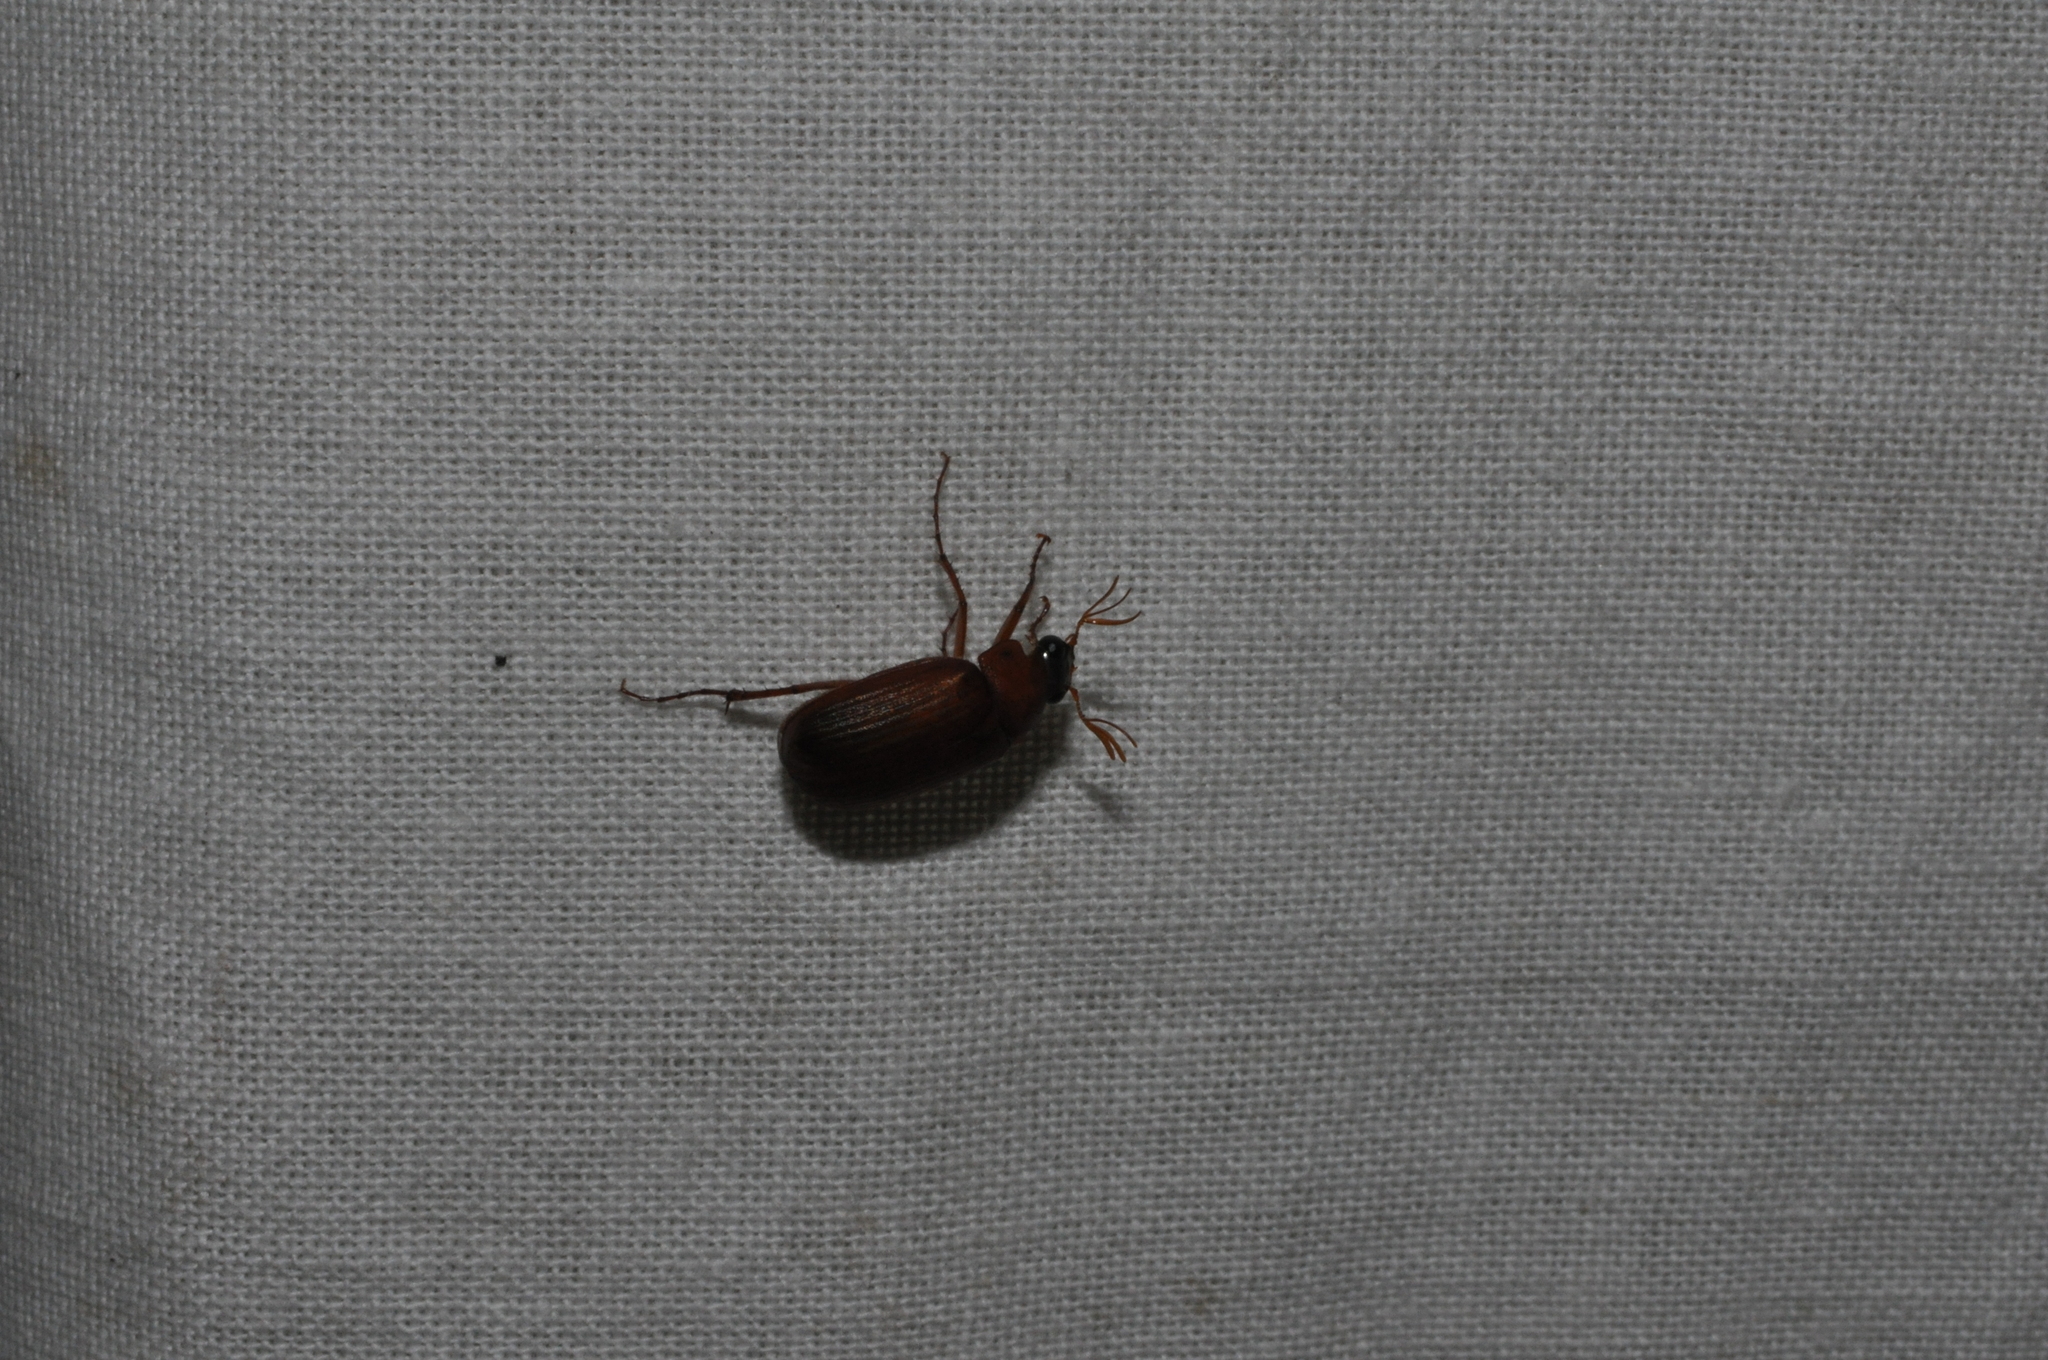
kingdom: Animalia
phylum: Arthropoda
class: Insecta
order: Coleoptera
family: Scarabaeidae
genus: Serica
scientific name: Serica brunnea
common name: Brown chafer
